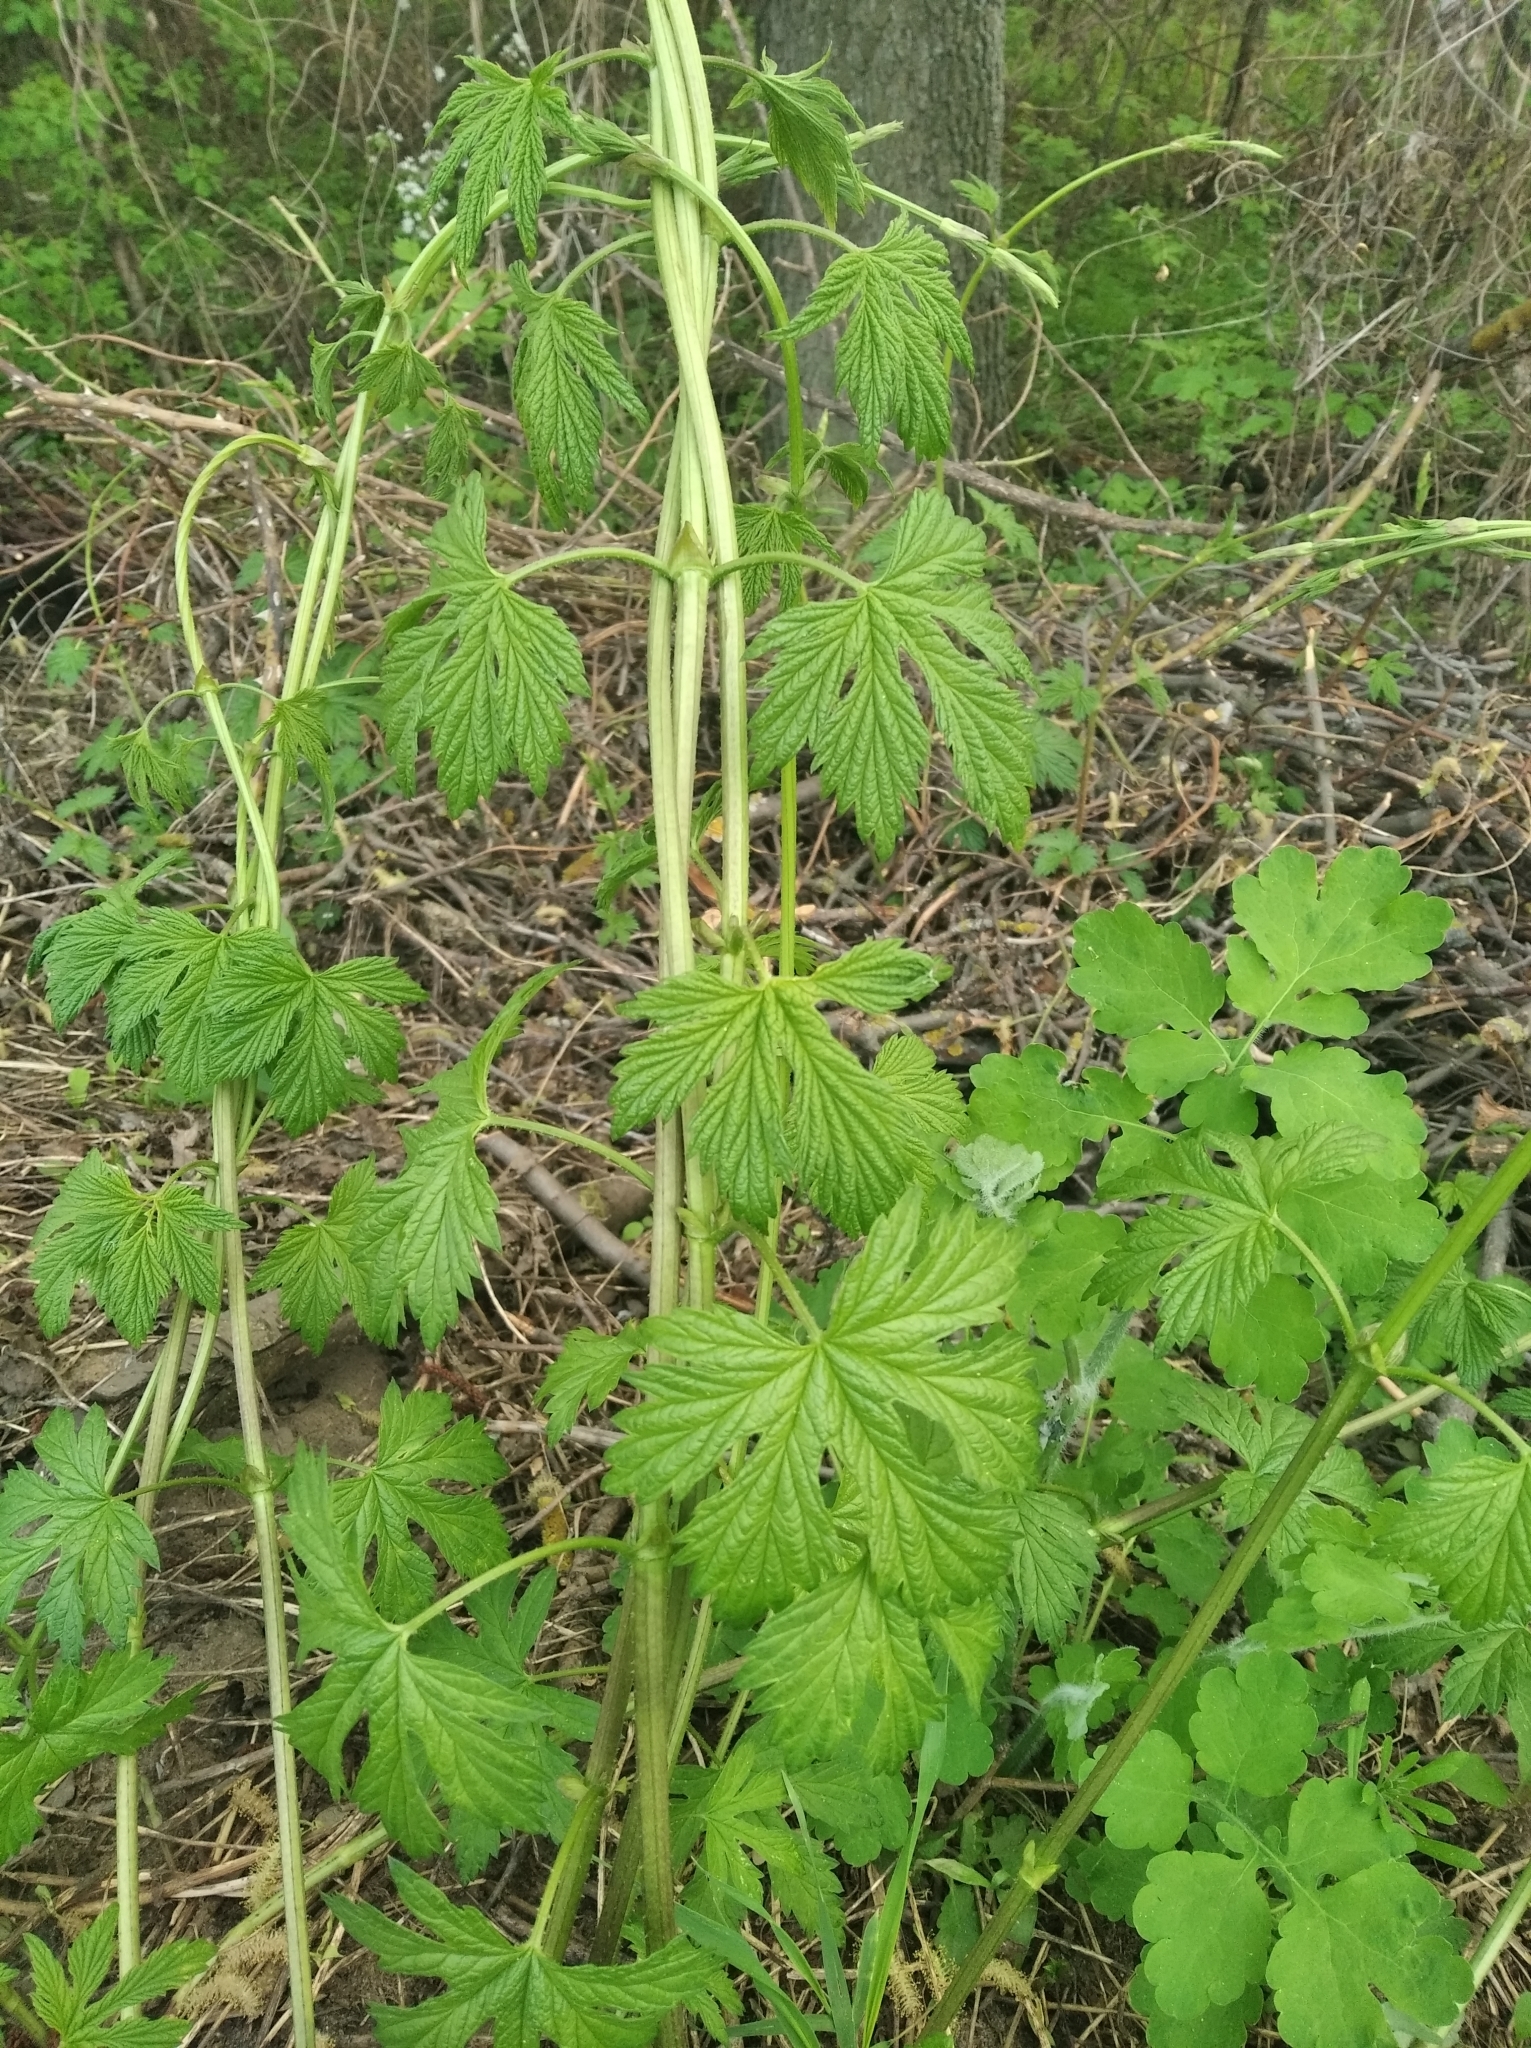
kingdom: Plantae
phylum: Tracheophyta
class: Magnoliopsida
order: Rosales
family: Cannabaceae
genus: Humulus
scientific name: Humulus lupulus
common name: Hop
